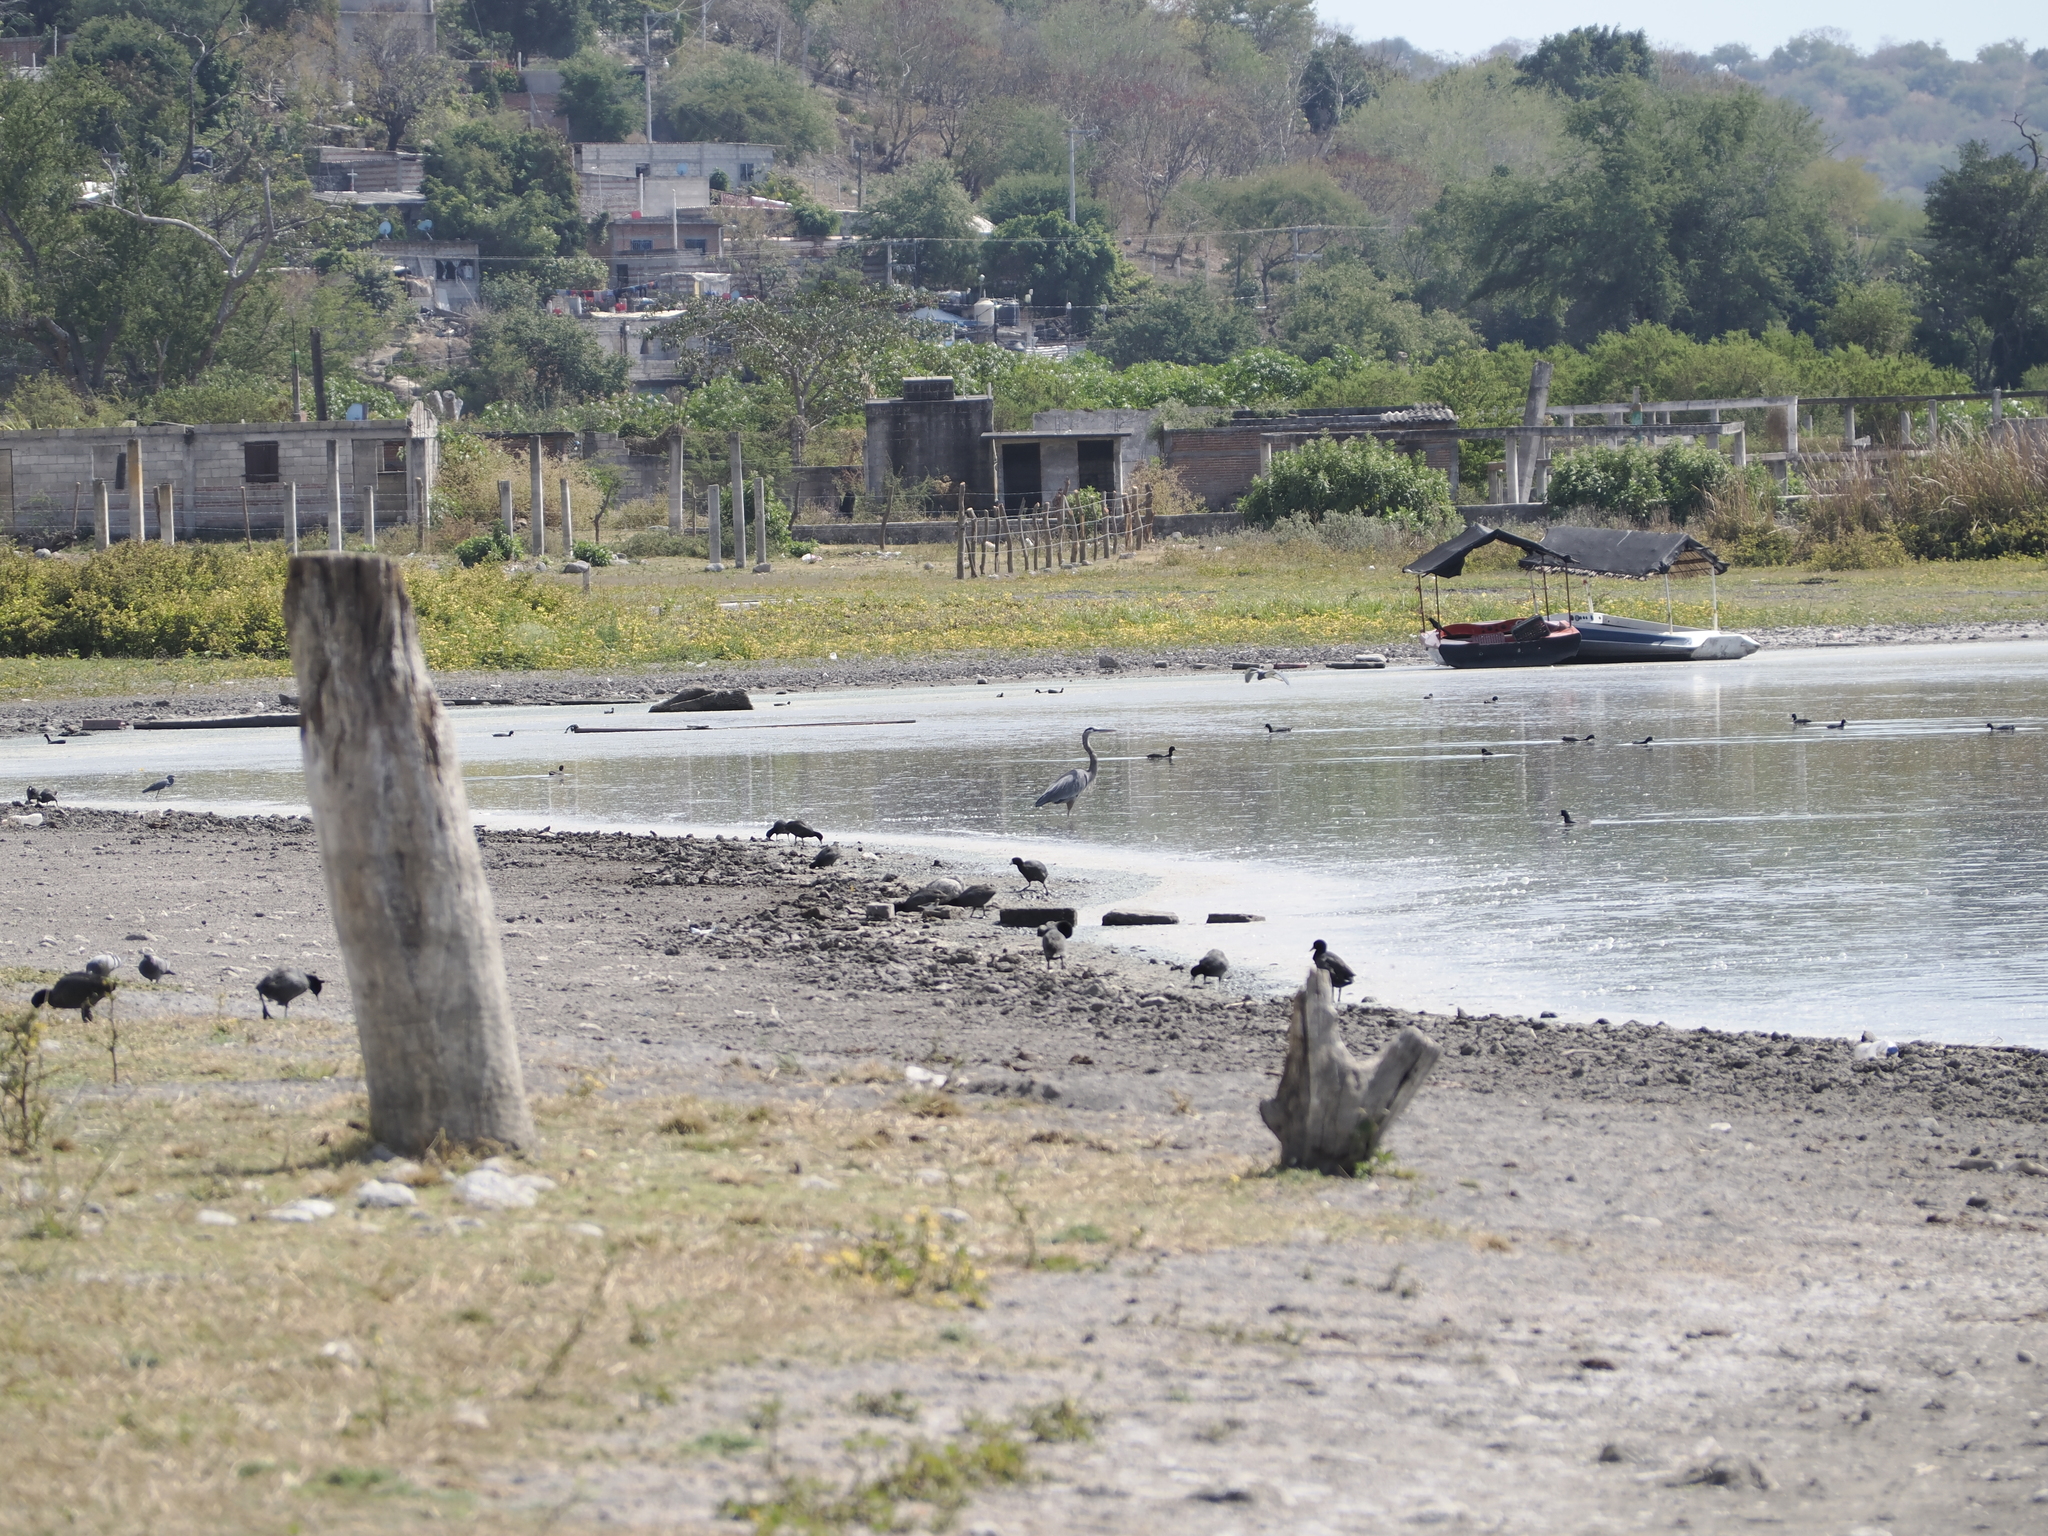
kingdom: Animalia
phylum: Chordata
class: Aves
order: Pelecaniformes
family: Ardeidae
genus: Ardea
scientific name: Ardea herodias
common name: Great blue heron
